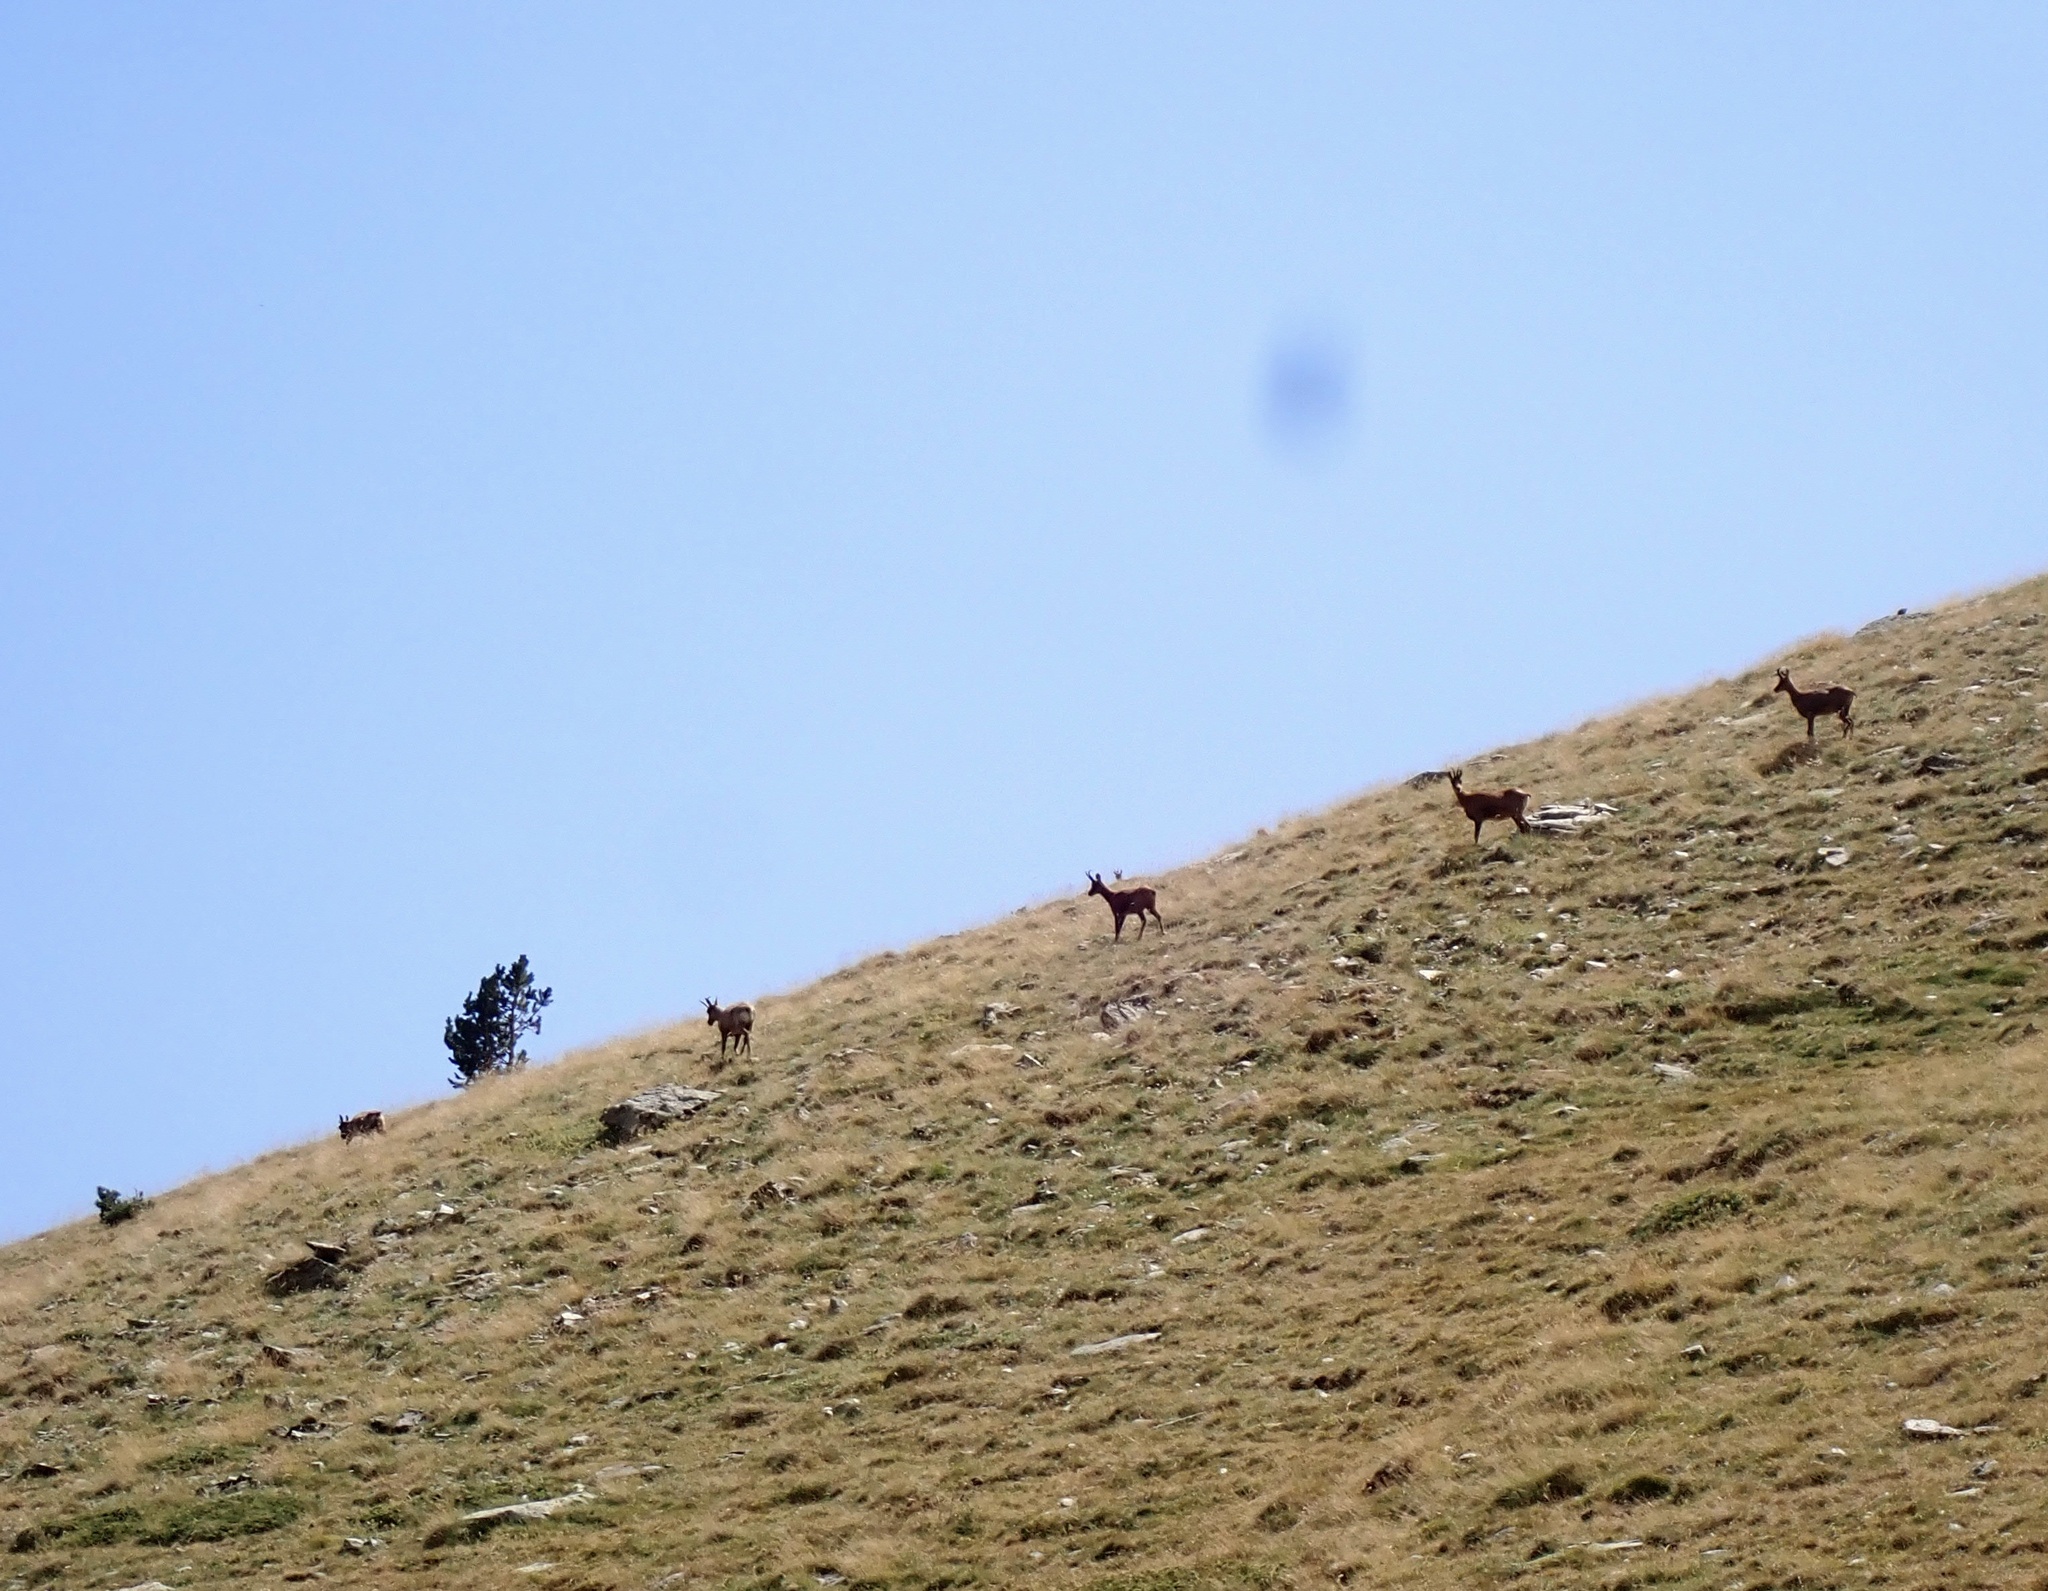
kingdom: Animalia
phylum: Chordata
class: Mammalia
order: Artiodactyla
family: Bovidae
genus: Rupicapra
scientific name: Rupicapra pyrenaica
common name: Pyrenean chamois
